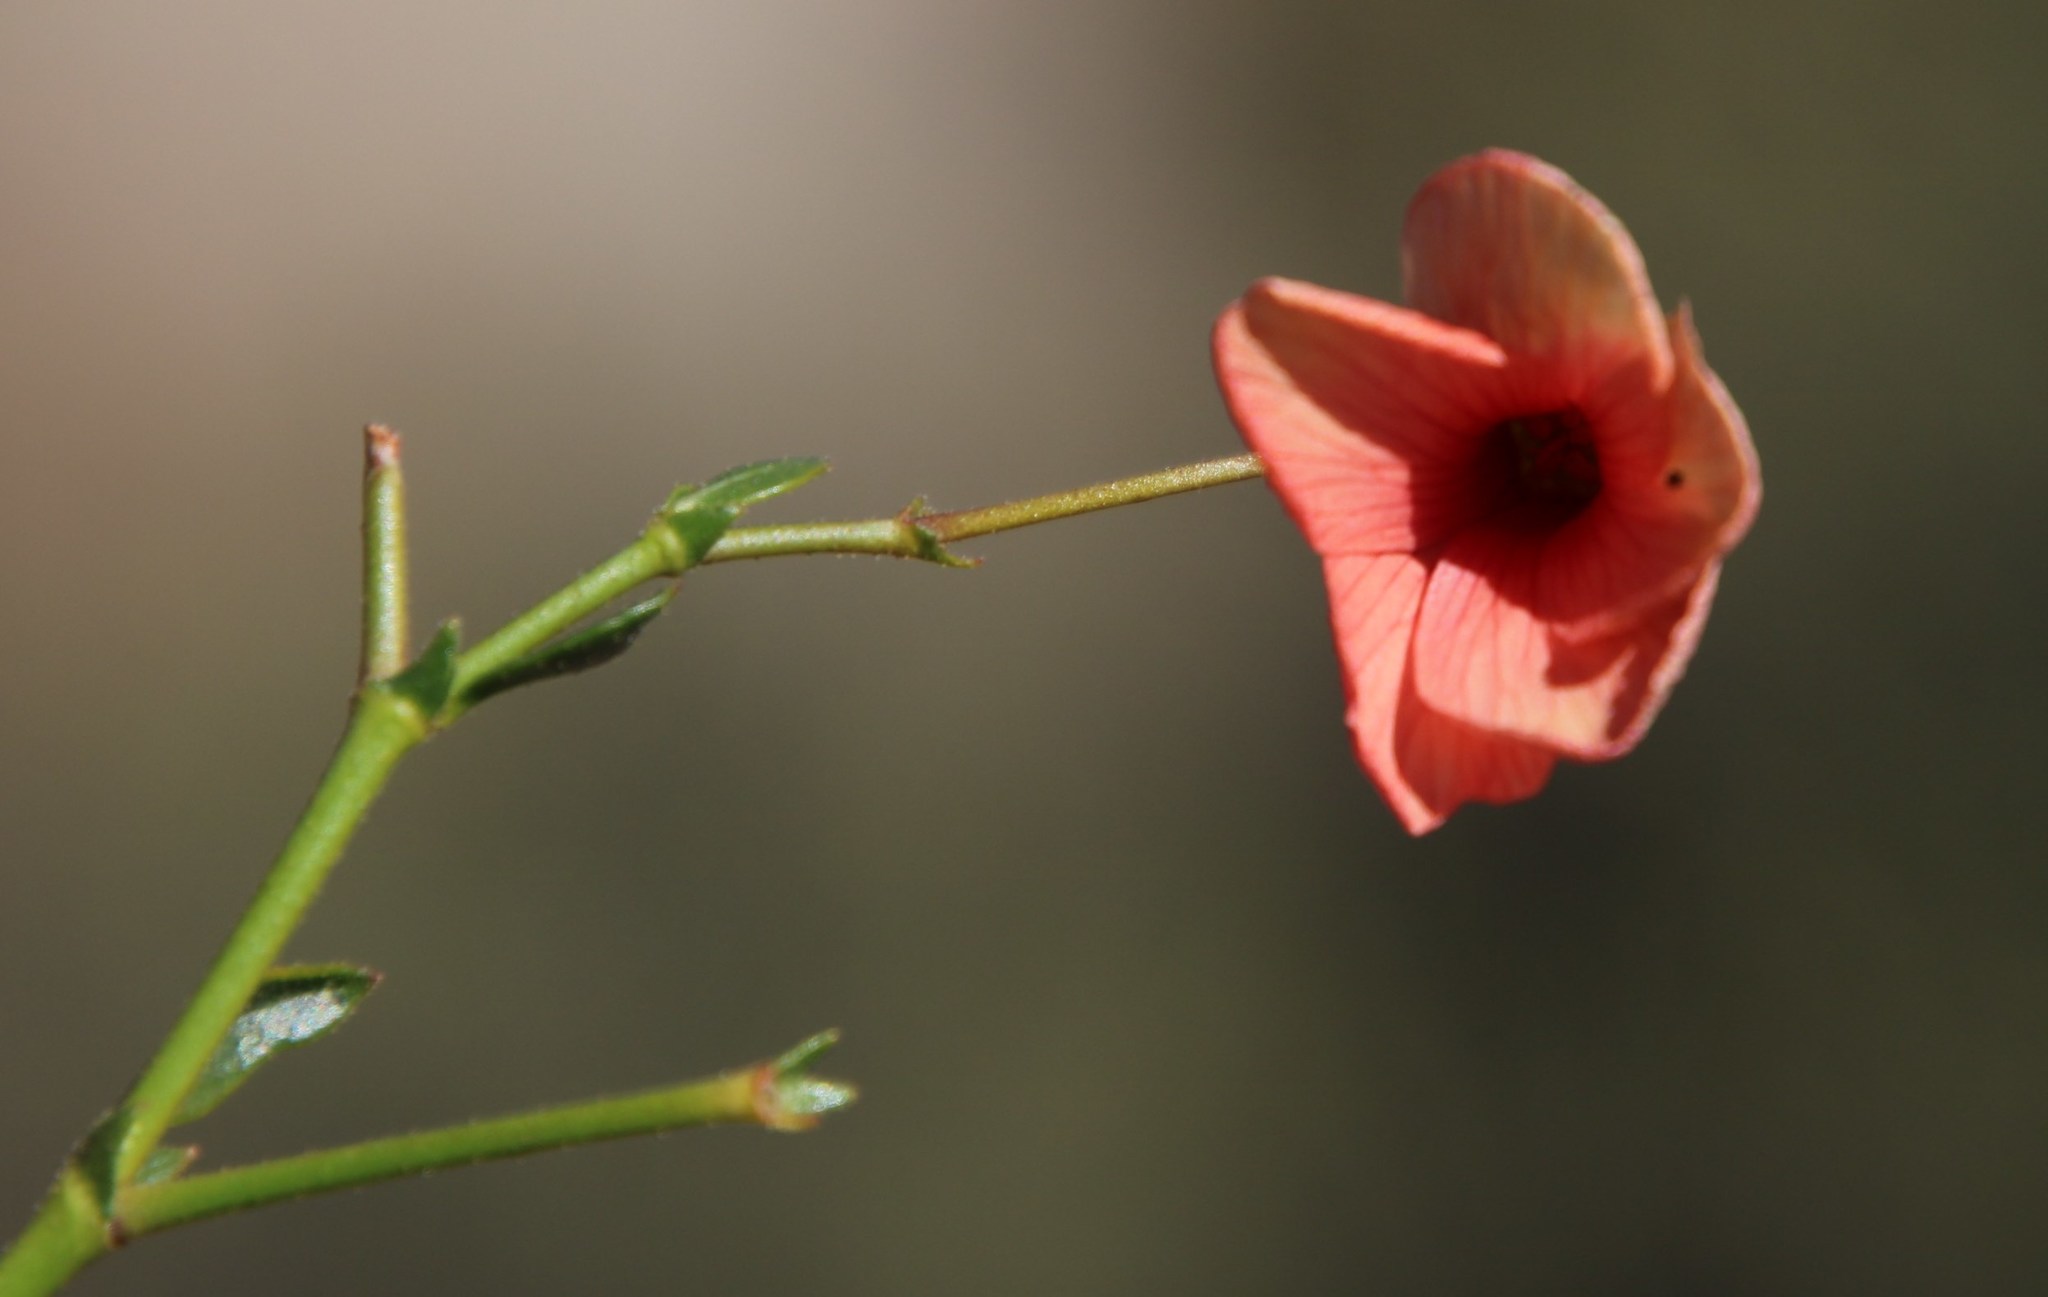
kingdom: Plantae
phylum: Tracheophyta
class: Magnoliopsida
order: Malvales
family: Malvaceae
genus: Hermannia
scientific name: Hermannia grandiflora
